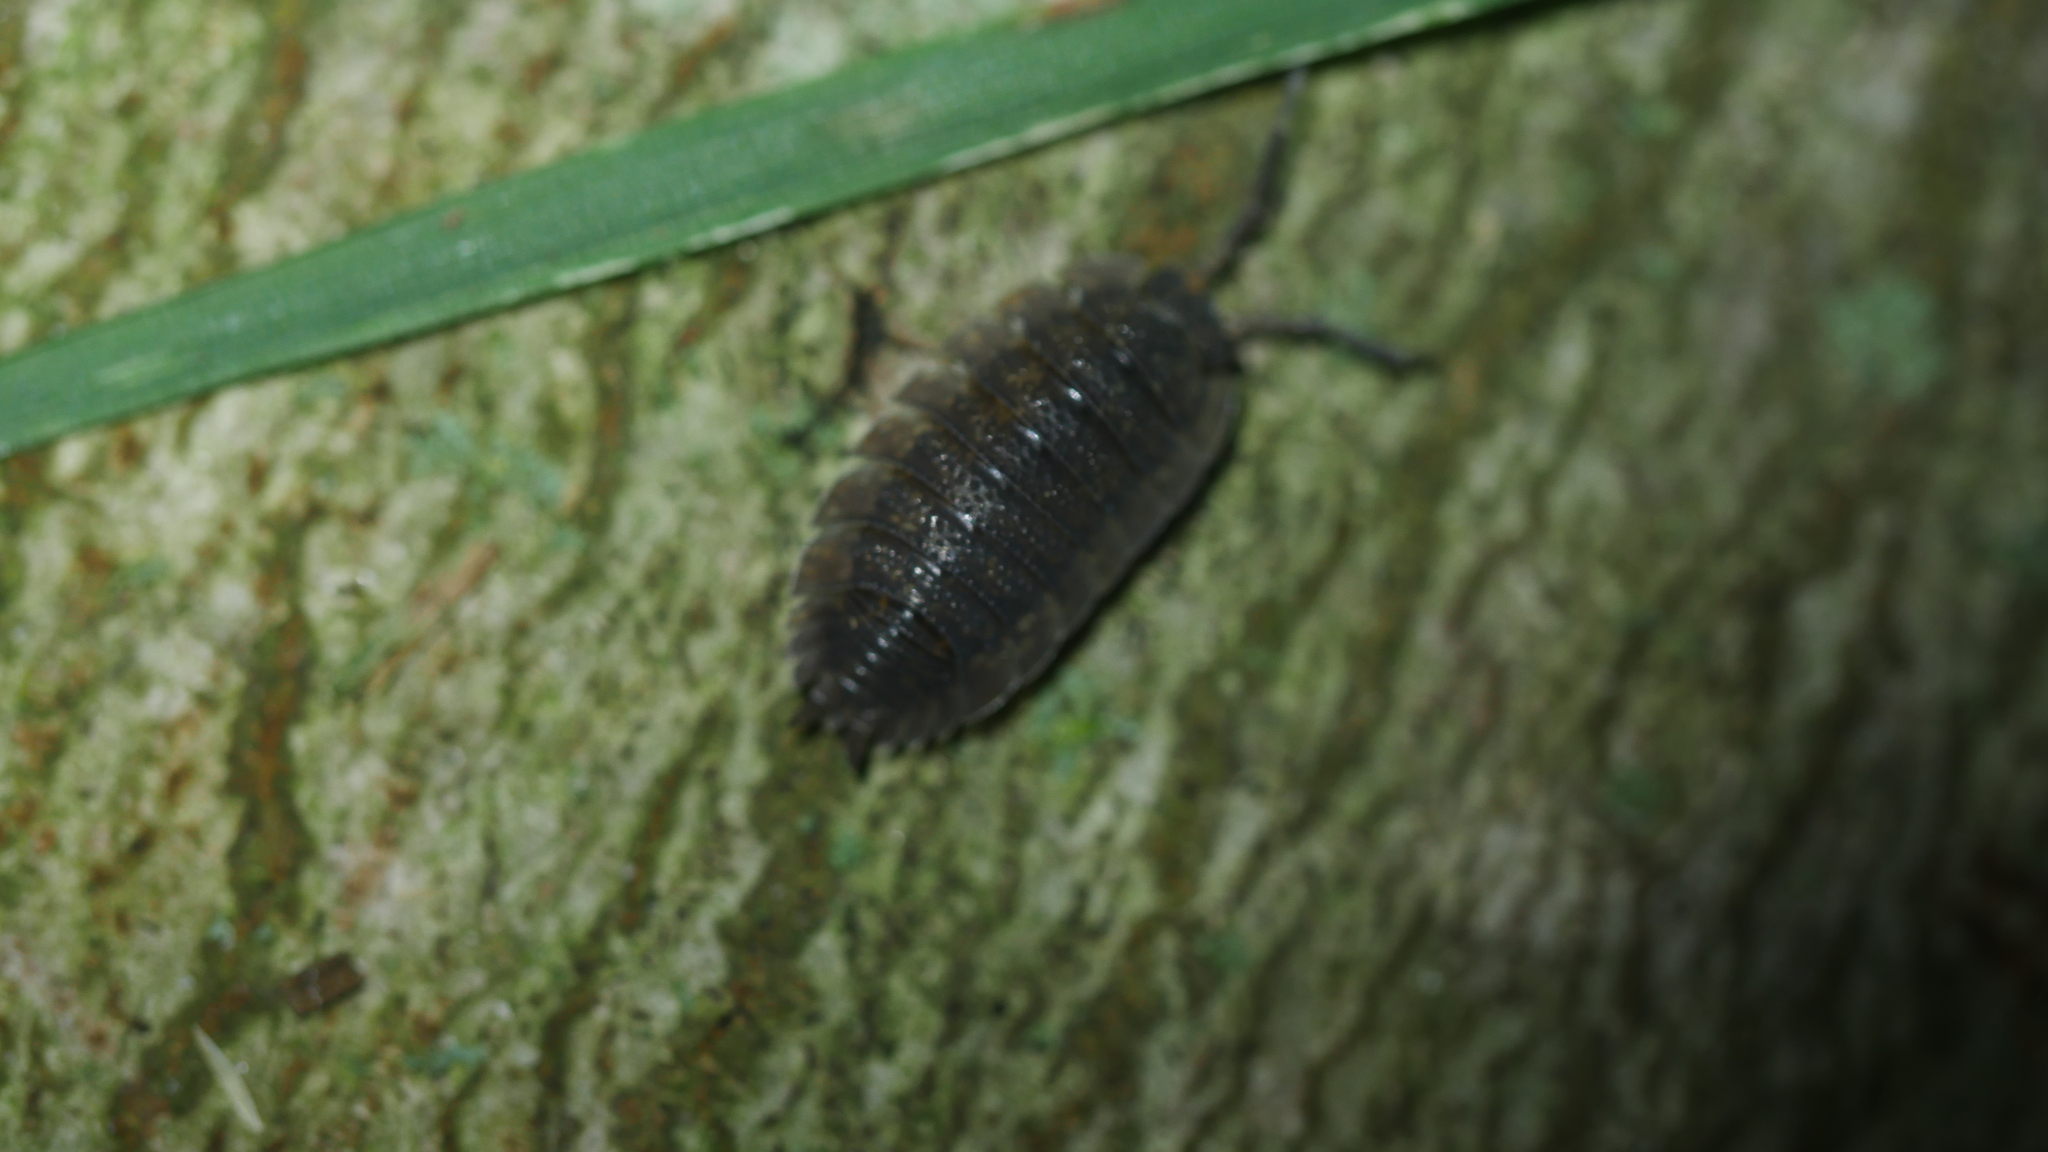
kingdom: Animalia
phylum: Arthropoda
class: Malacostraca
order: Isopoda
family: Porcellionidae
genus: Porcellio
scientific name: Porcellio scaber
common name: Common rough woodlouse
